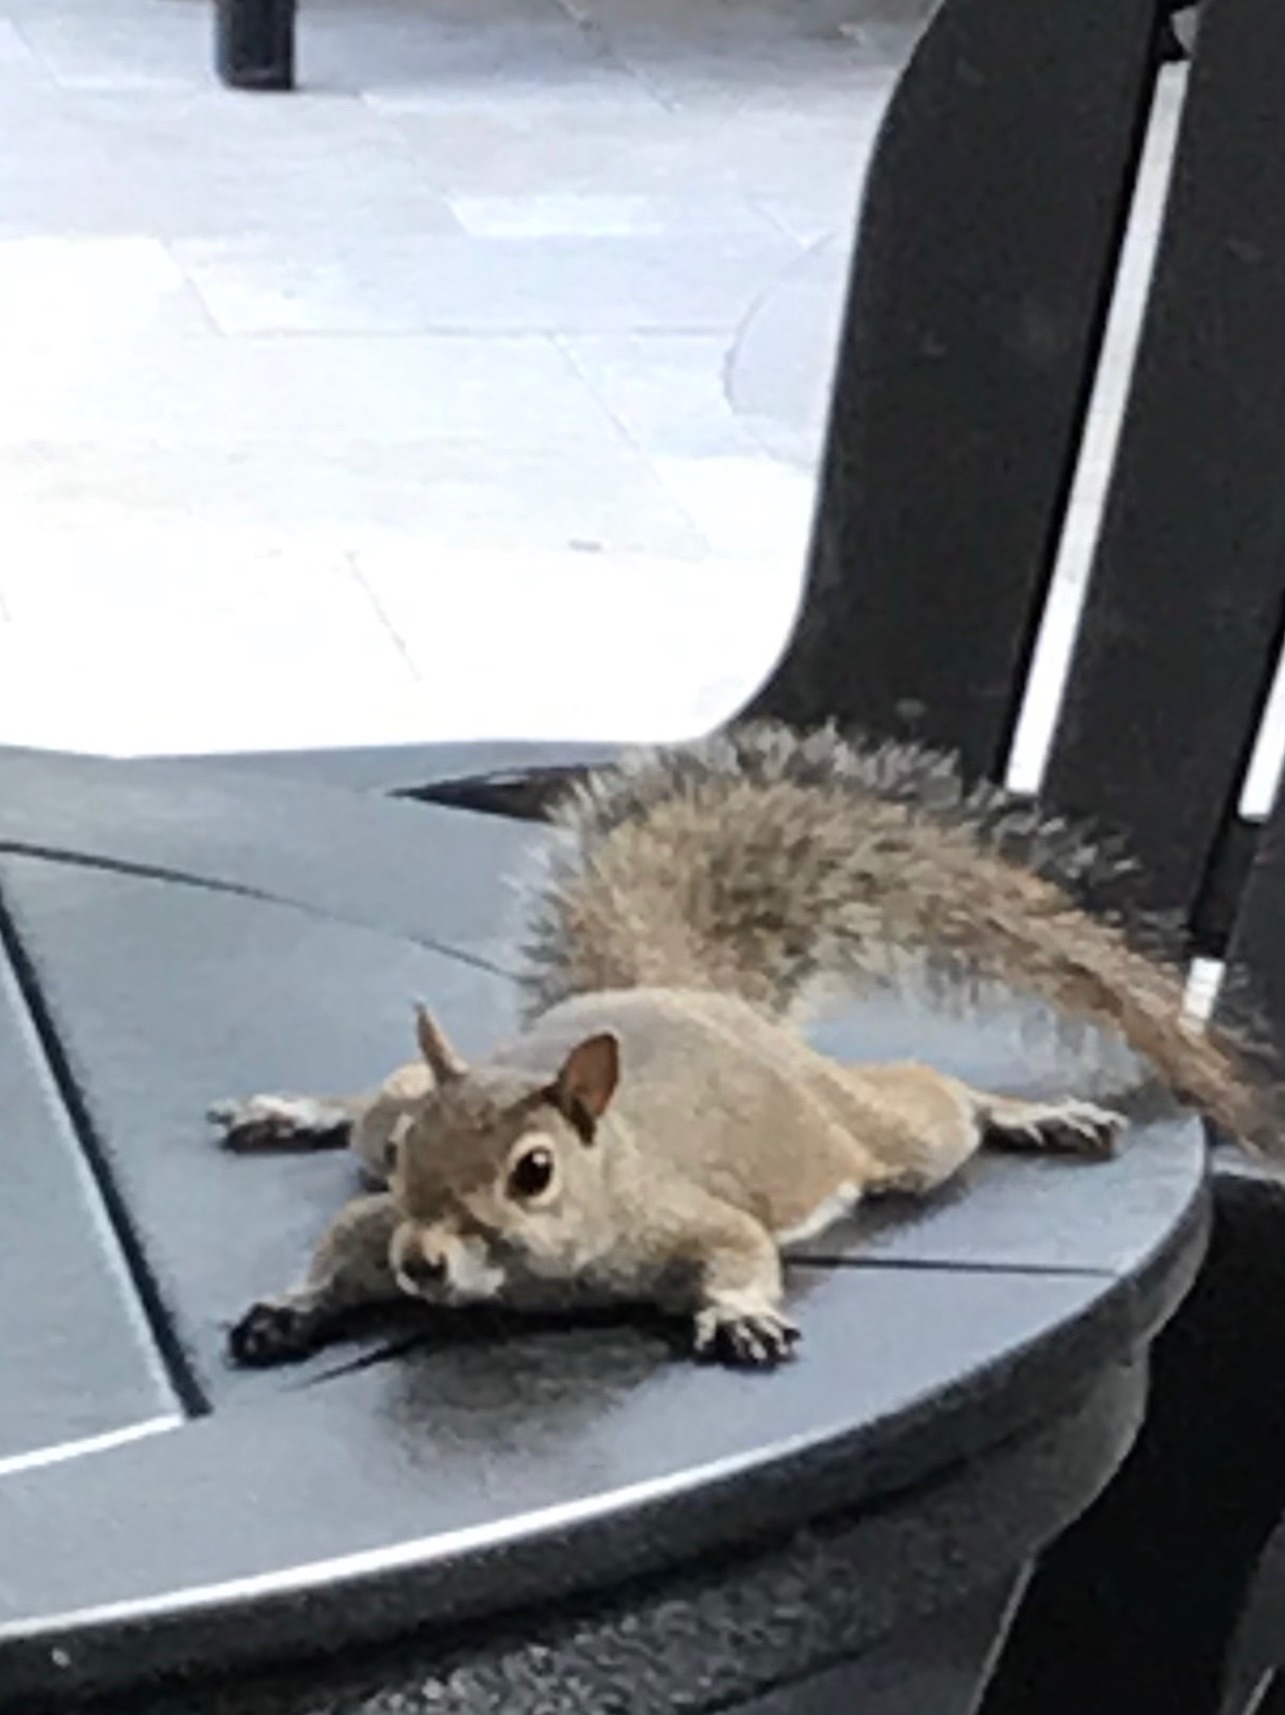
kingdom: Animalia
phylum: Chordata
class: Mammalia
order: Rodentia
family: Sciuridae
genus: Sciurus
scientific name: Sciurus carolinensis
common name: Eastern gray squirrel
